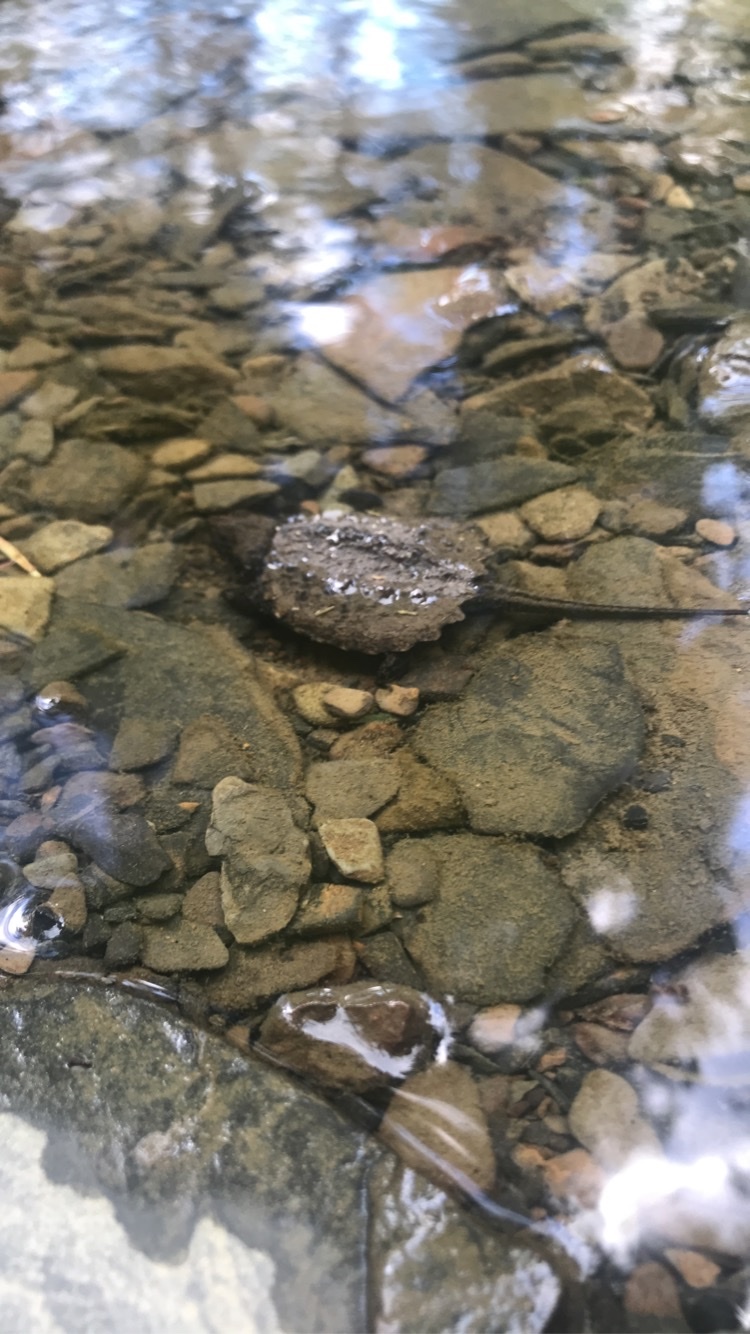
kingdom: Animalia
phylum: Chordata
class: Testudines
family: Chelydridae
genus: Chelydra
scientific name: Chelydra serpentina
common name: Common snapping turtle
